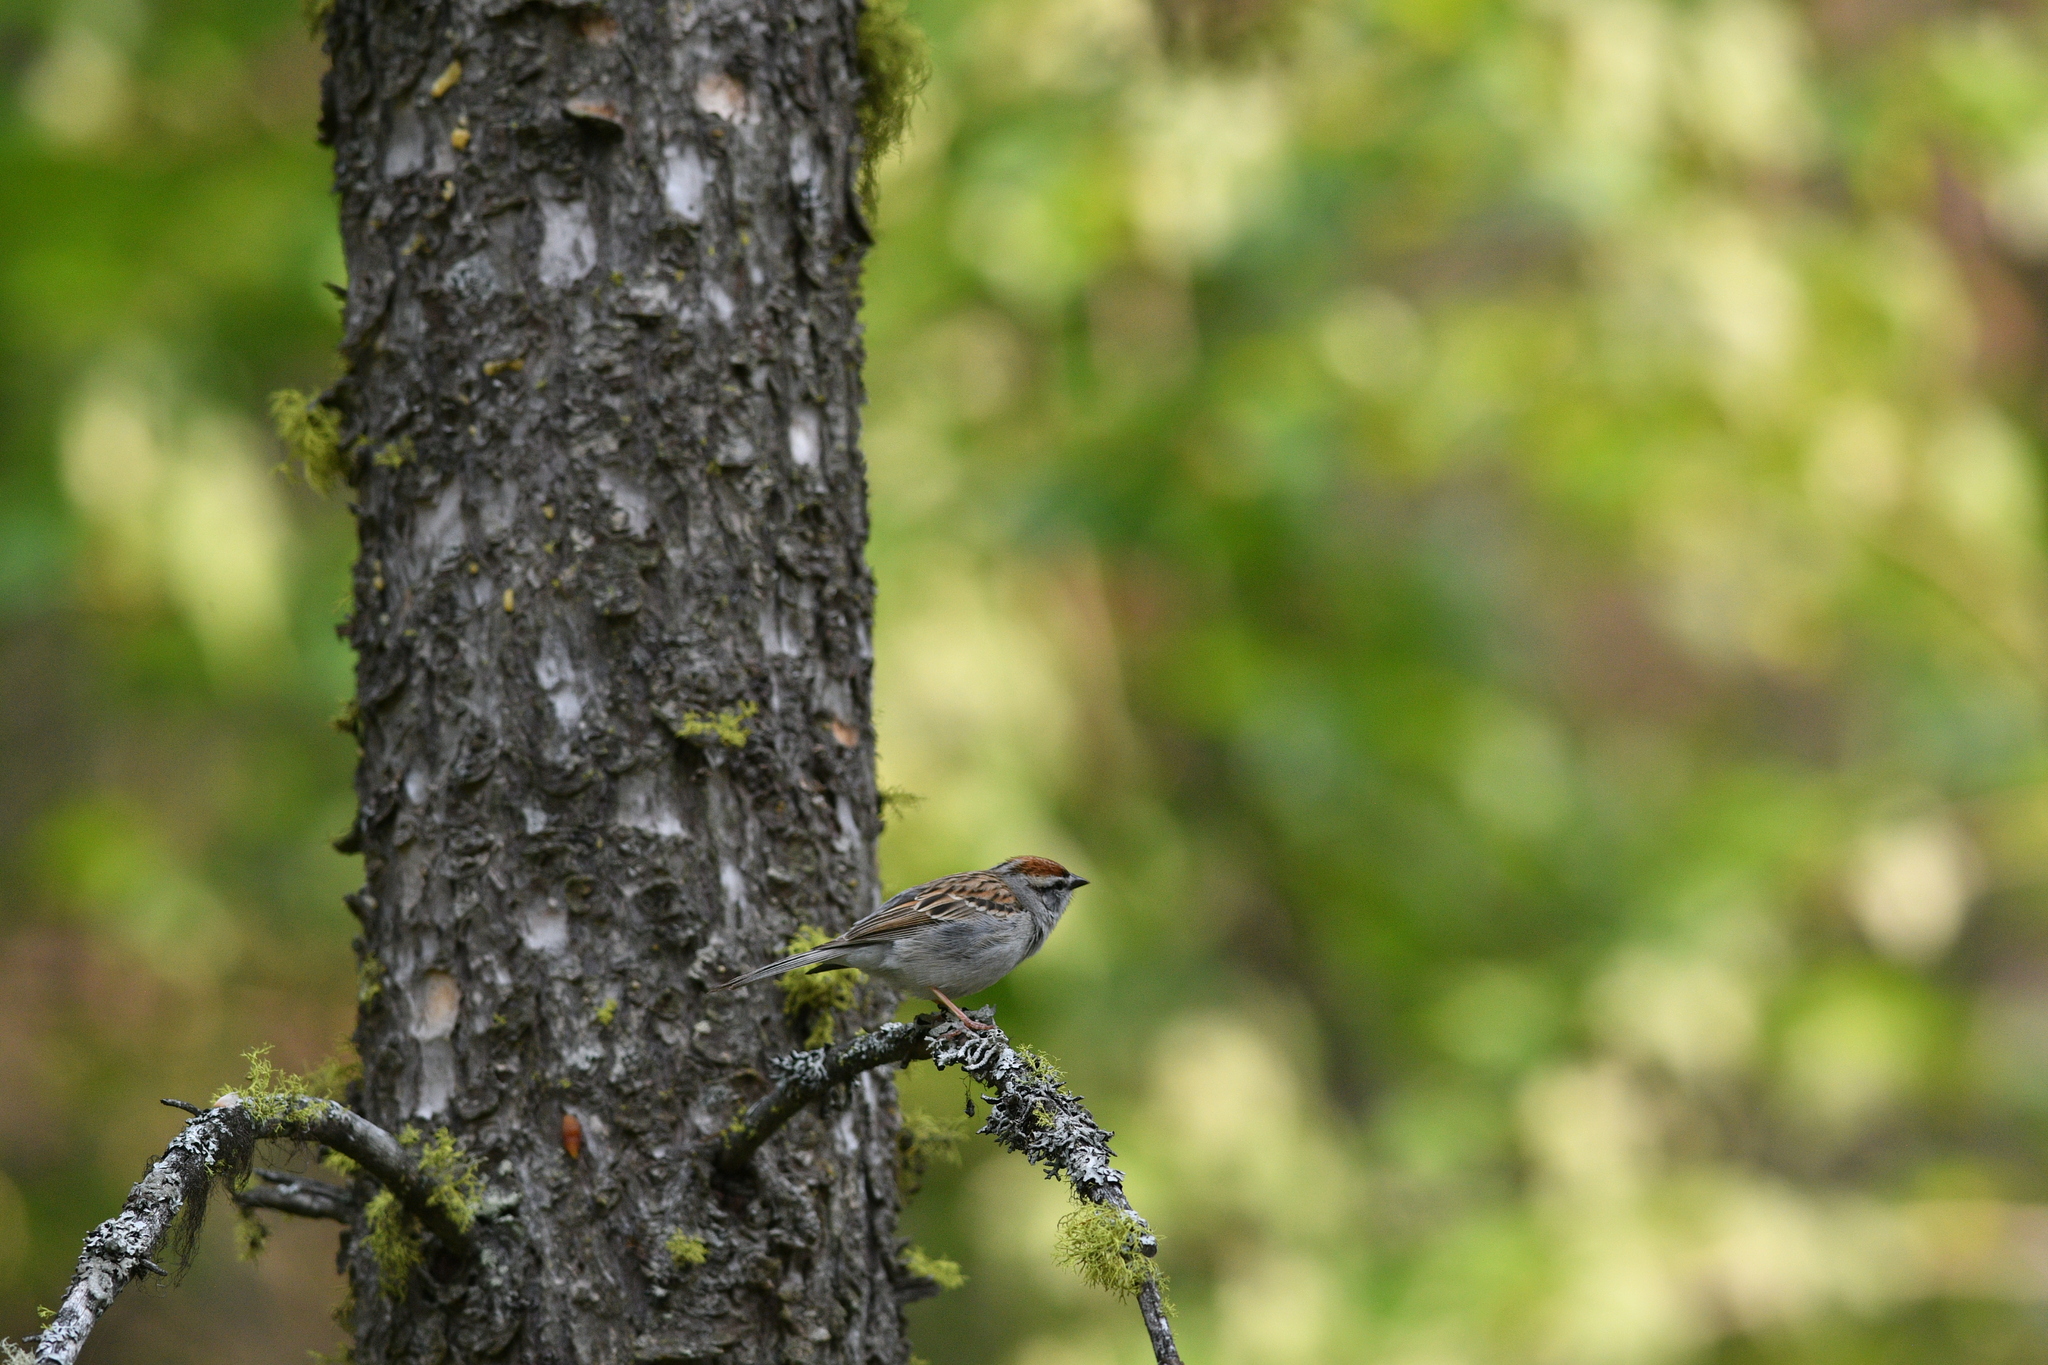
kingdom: Animalia
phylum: Chordata
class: Aves
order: Passeriformes
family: Passerellidae
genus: Spizella
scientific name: Spizella passerina
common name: Chipping sparrow
